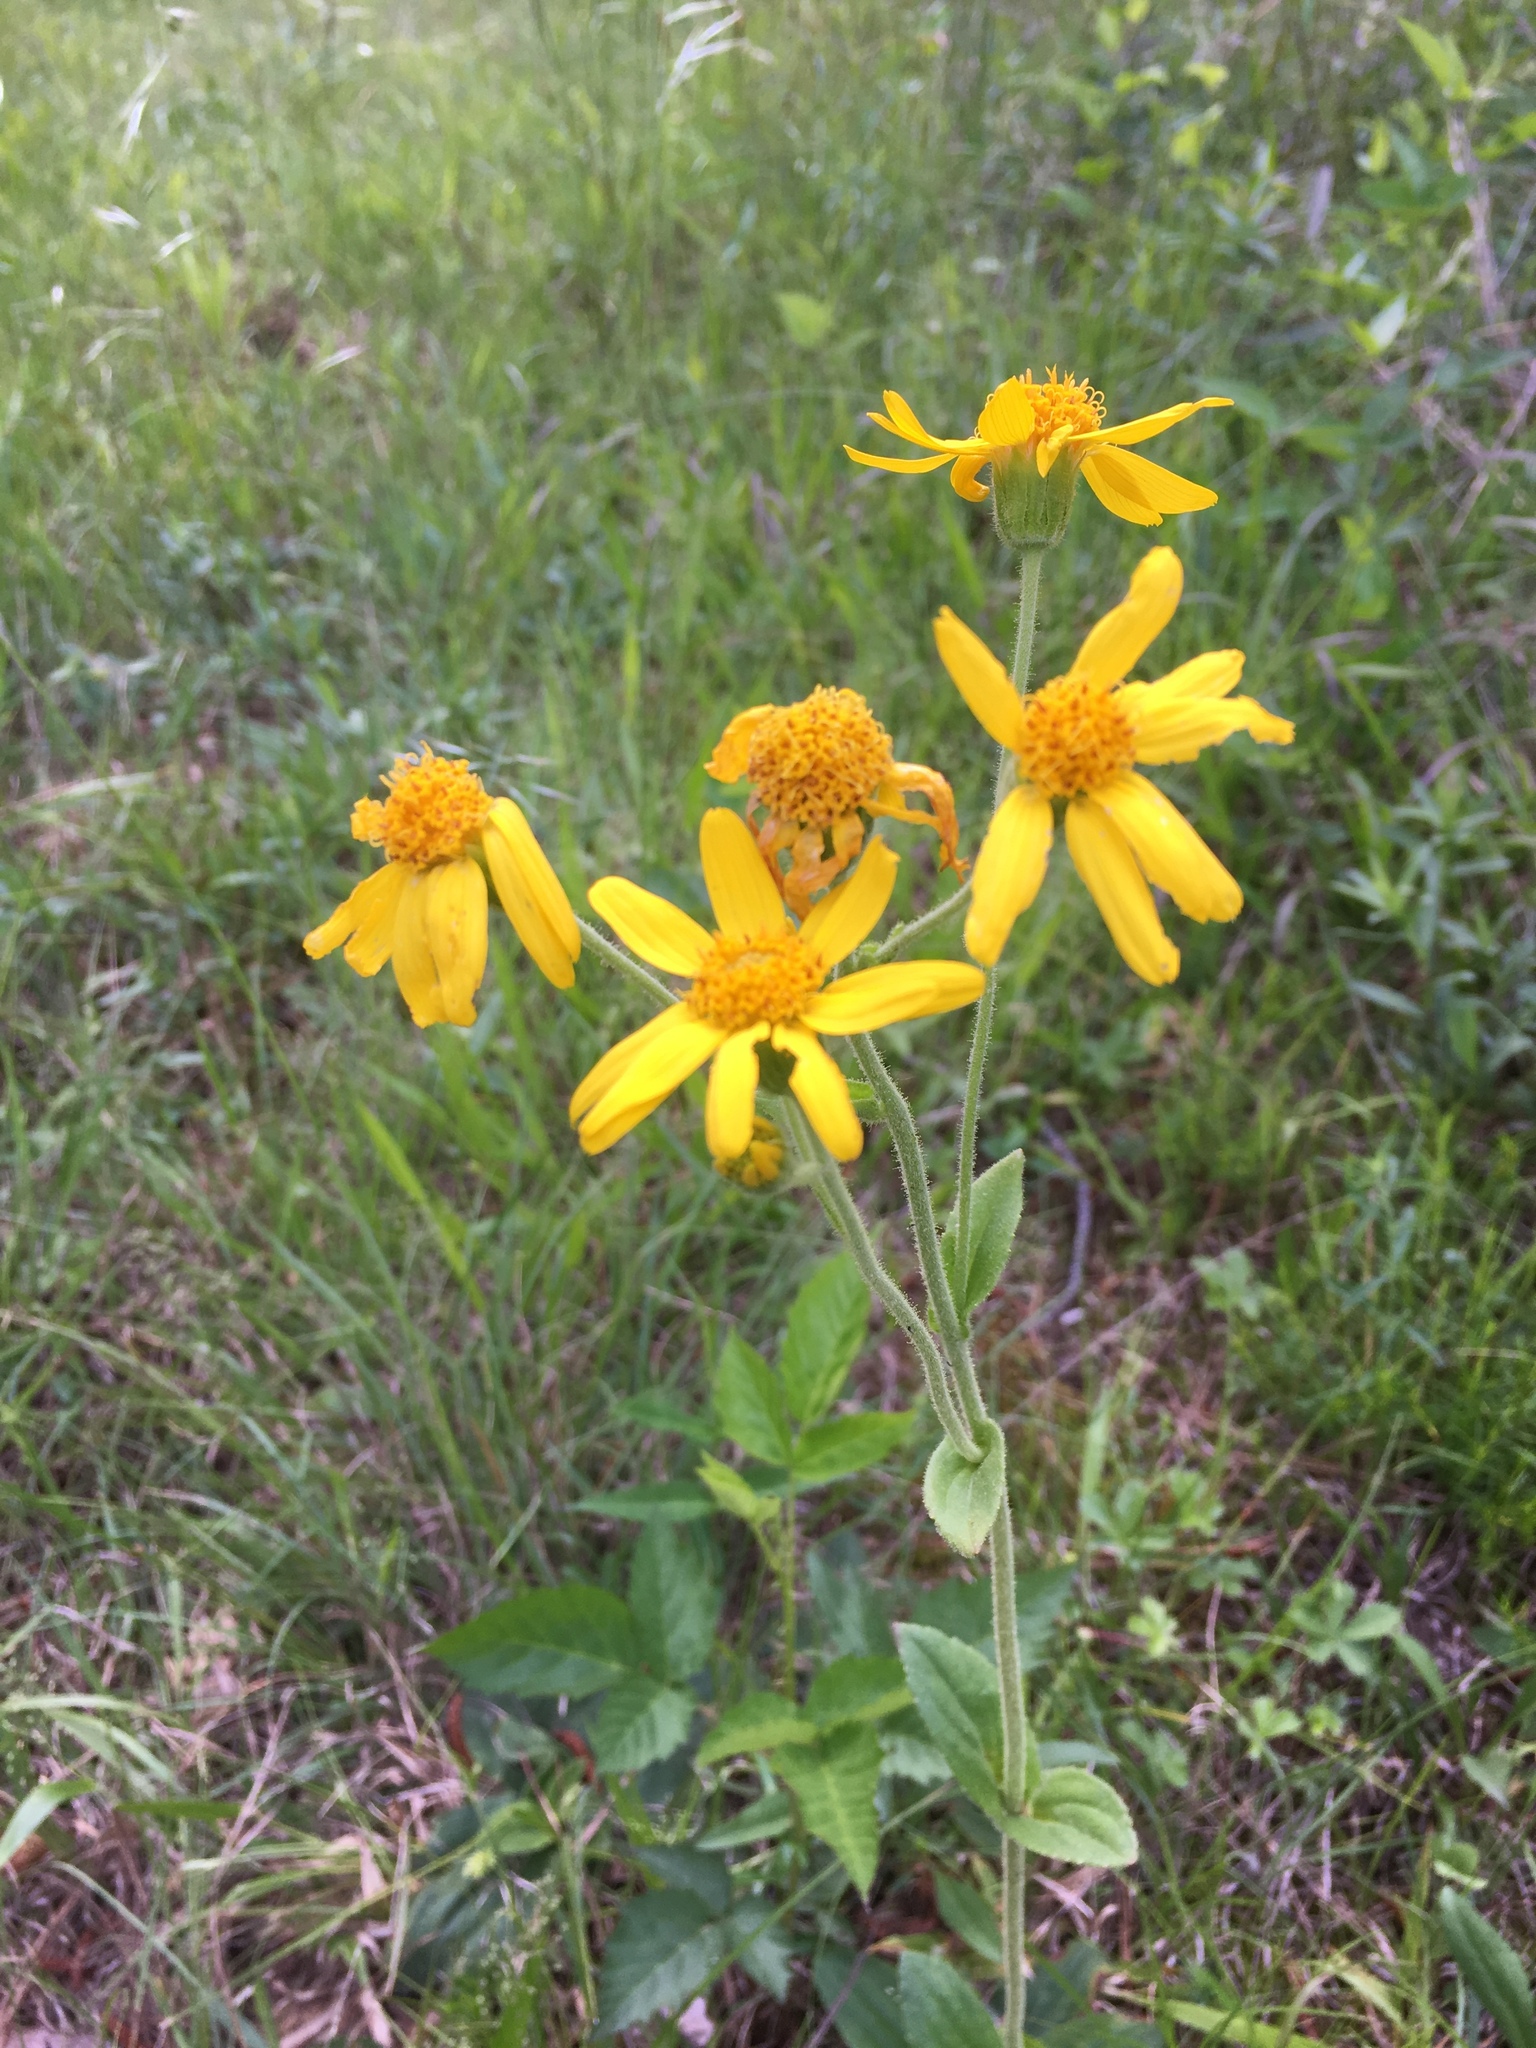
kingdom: Plantae
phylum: Tracheophyta
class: Magnoliopsida
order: Asterales
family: Asteraceae
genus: Arnica
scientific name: Arnica acaulis
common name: Common leopardbane
